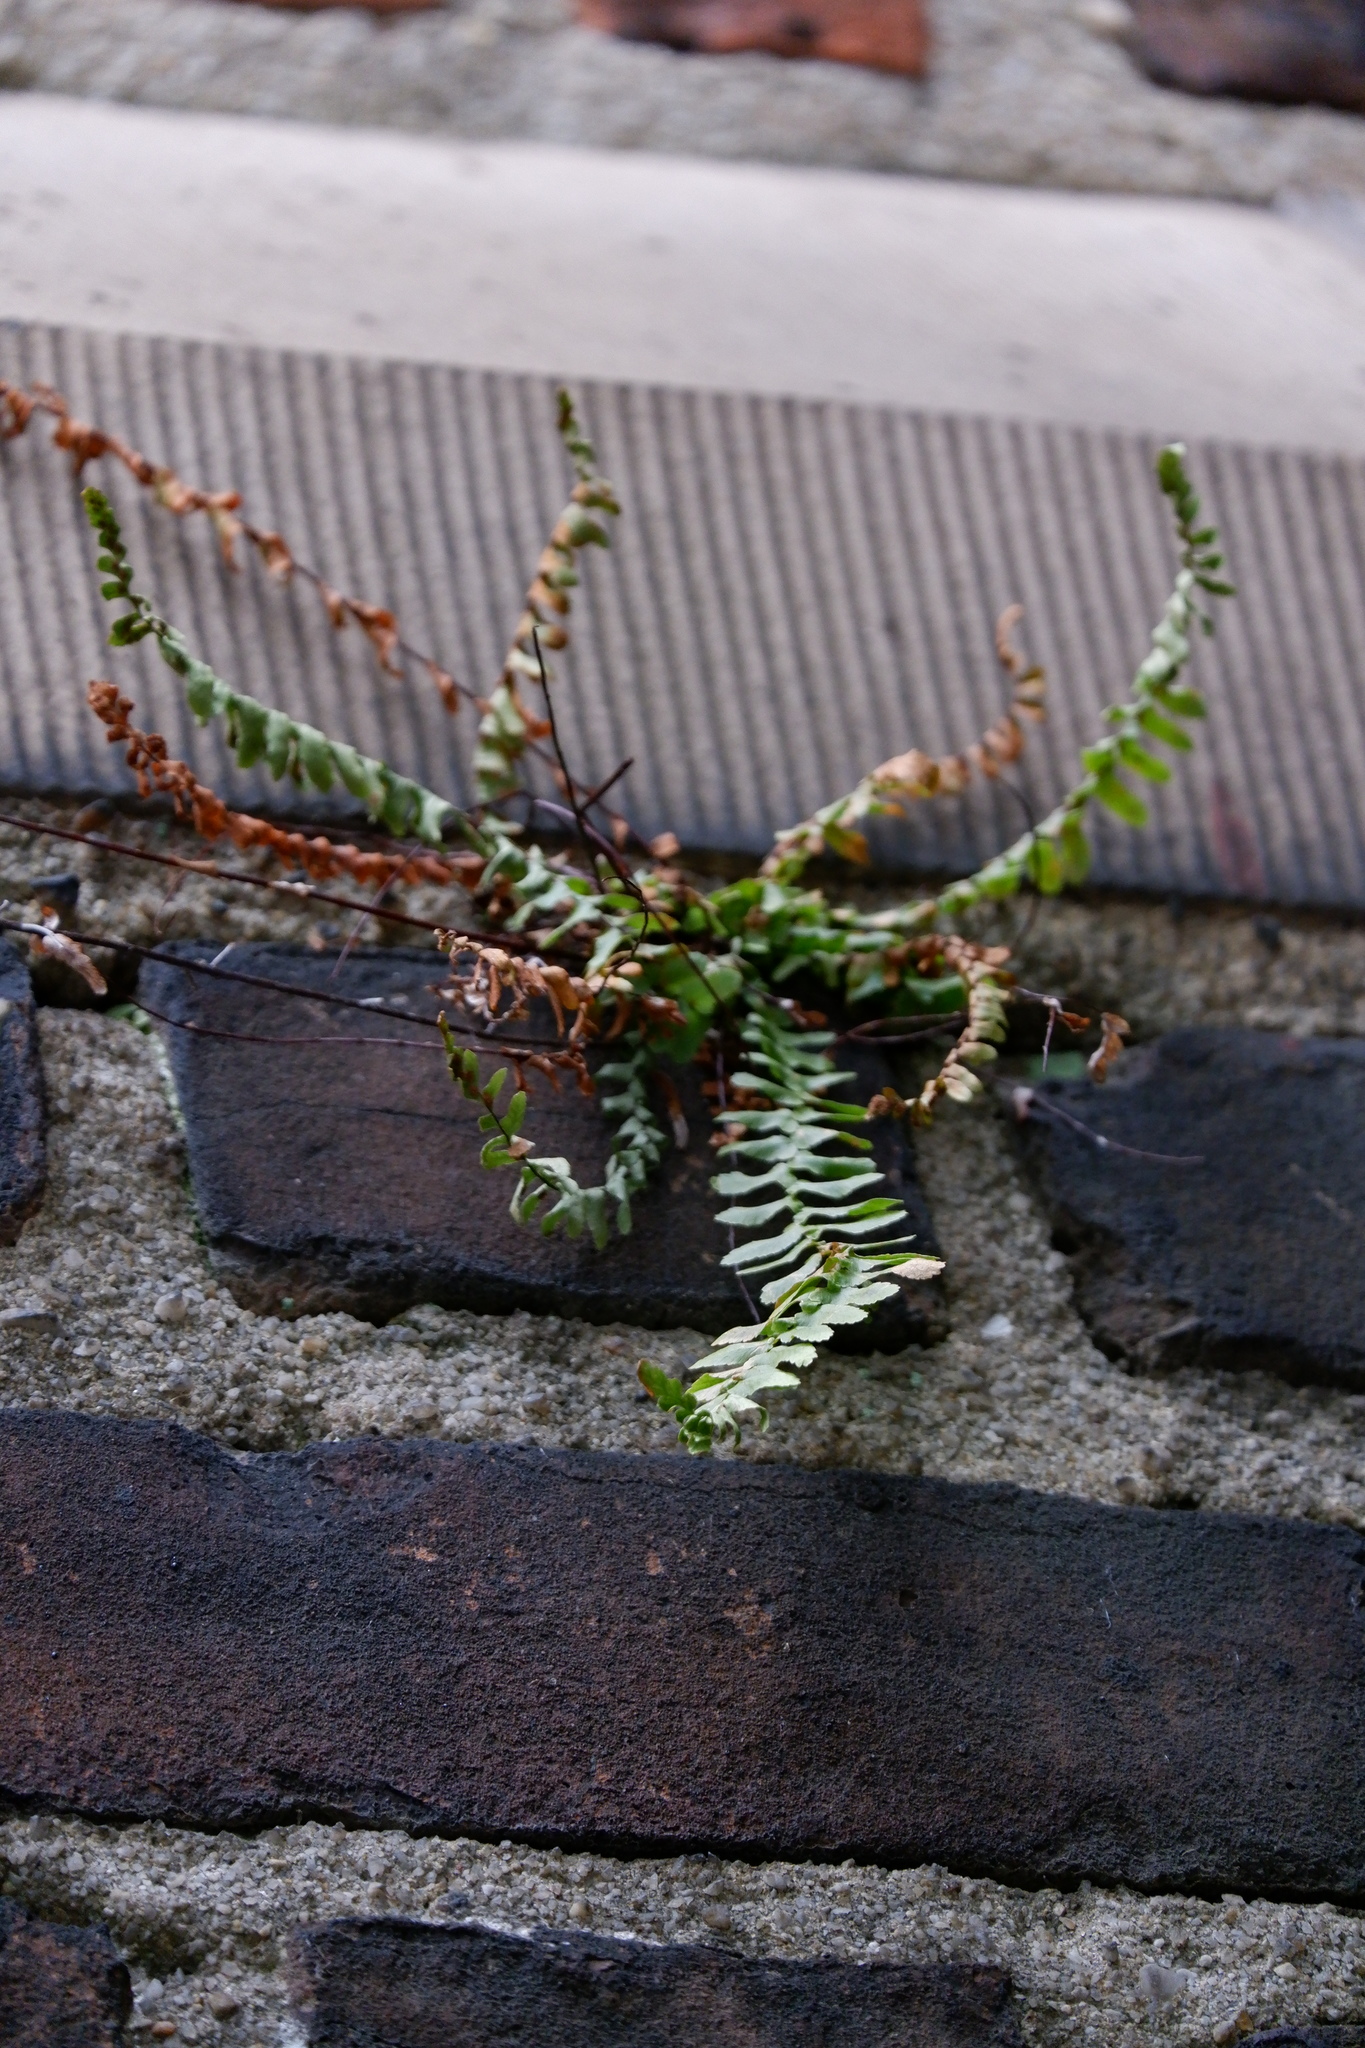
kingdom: Plantae
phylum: Tracheophyta
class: Polypodiopsida
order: Polypodiales
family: Aspleniaceae
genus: Asplenium
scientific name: Asplenium platyneuron
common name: Ebony spleenwort
